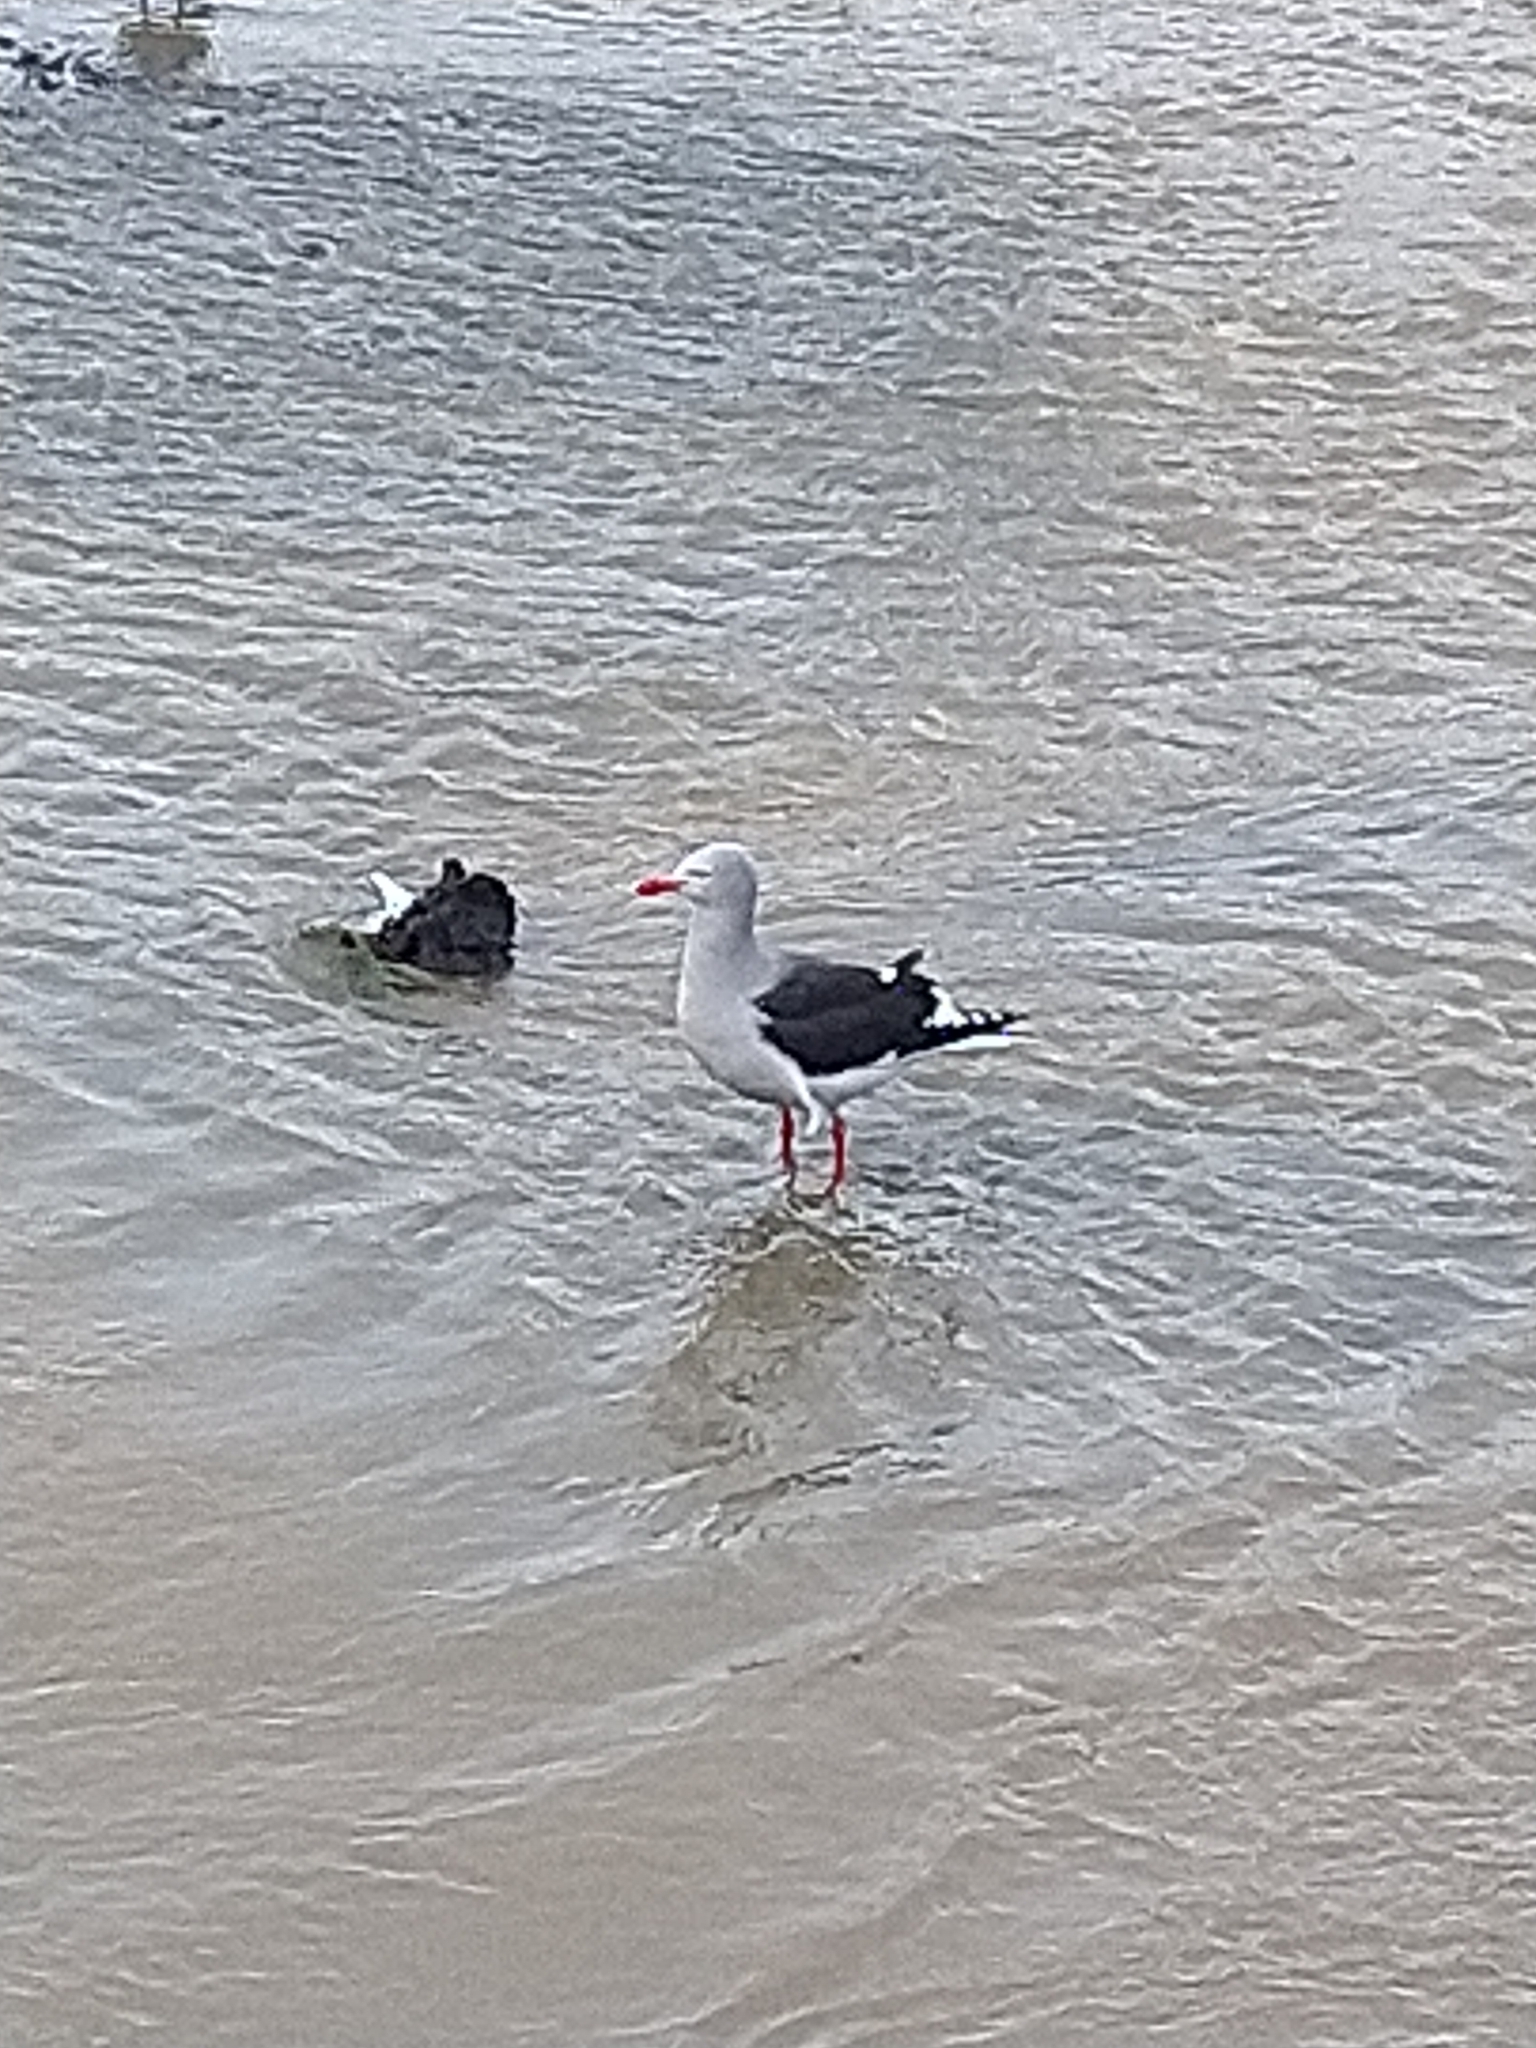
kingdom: Animalia
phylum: Chordata
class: Aves
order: Charadriiformes
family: Laridae
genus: Leucophaeus
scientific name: Leucophaeus scoresbii
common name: Dolphin gull
